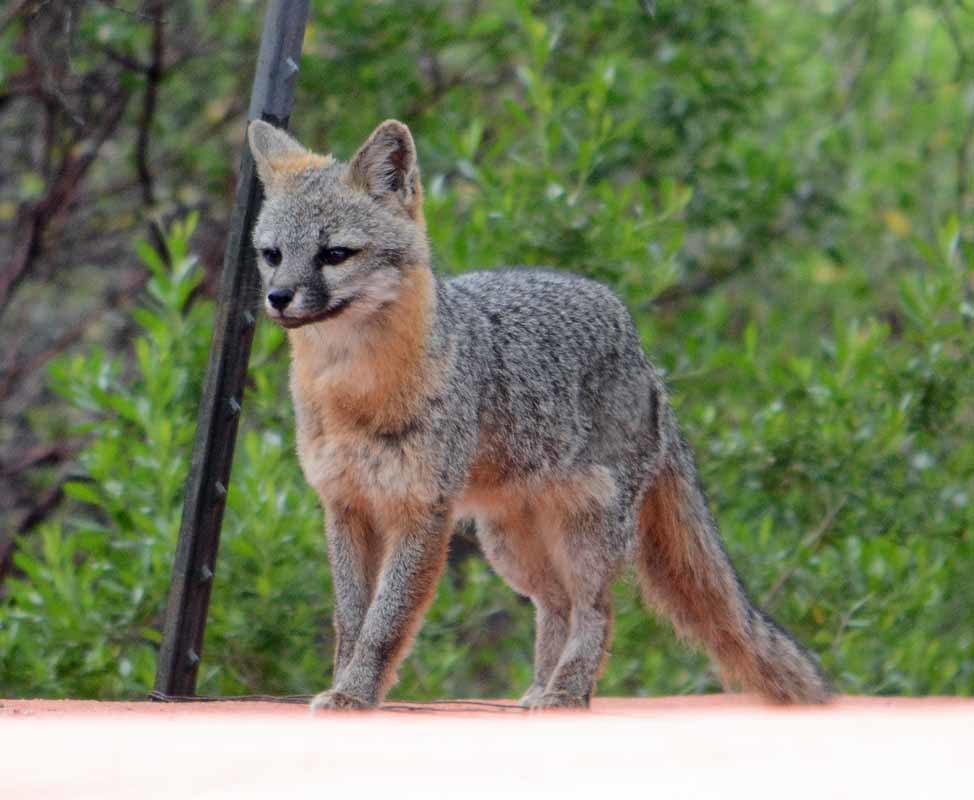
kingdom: Animalia
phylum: Chordata
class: Mammalia
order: Carnivora
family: Canidae
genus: Urocyon
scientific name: Urocyon cinereoargenteus
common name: Gray fox
